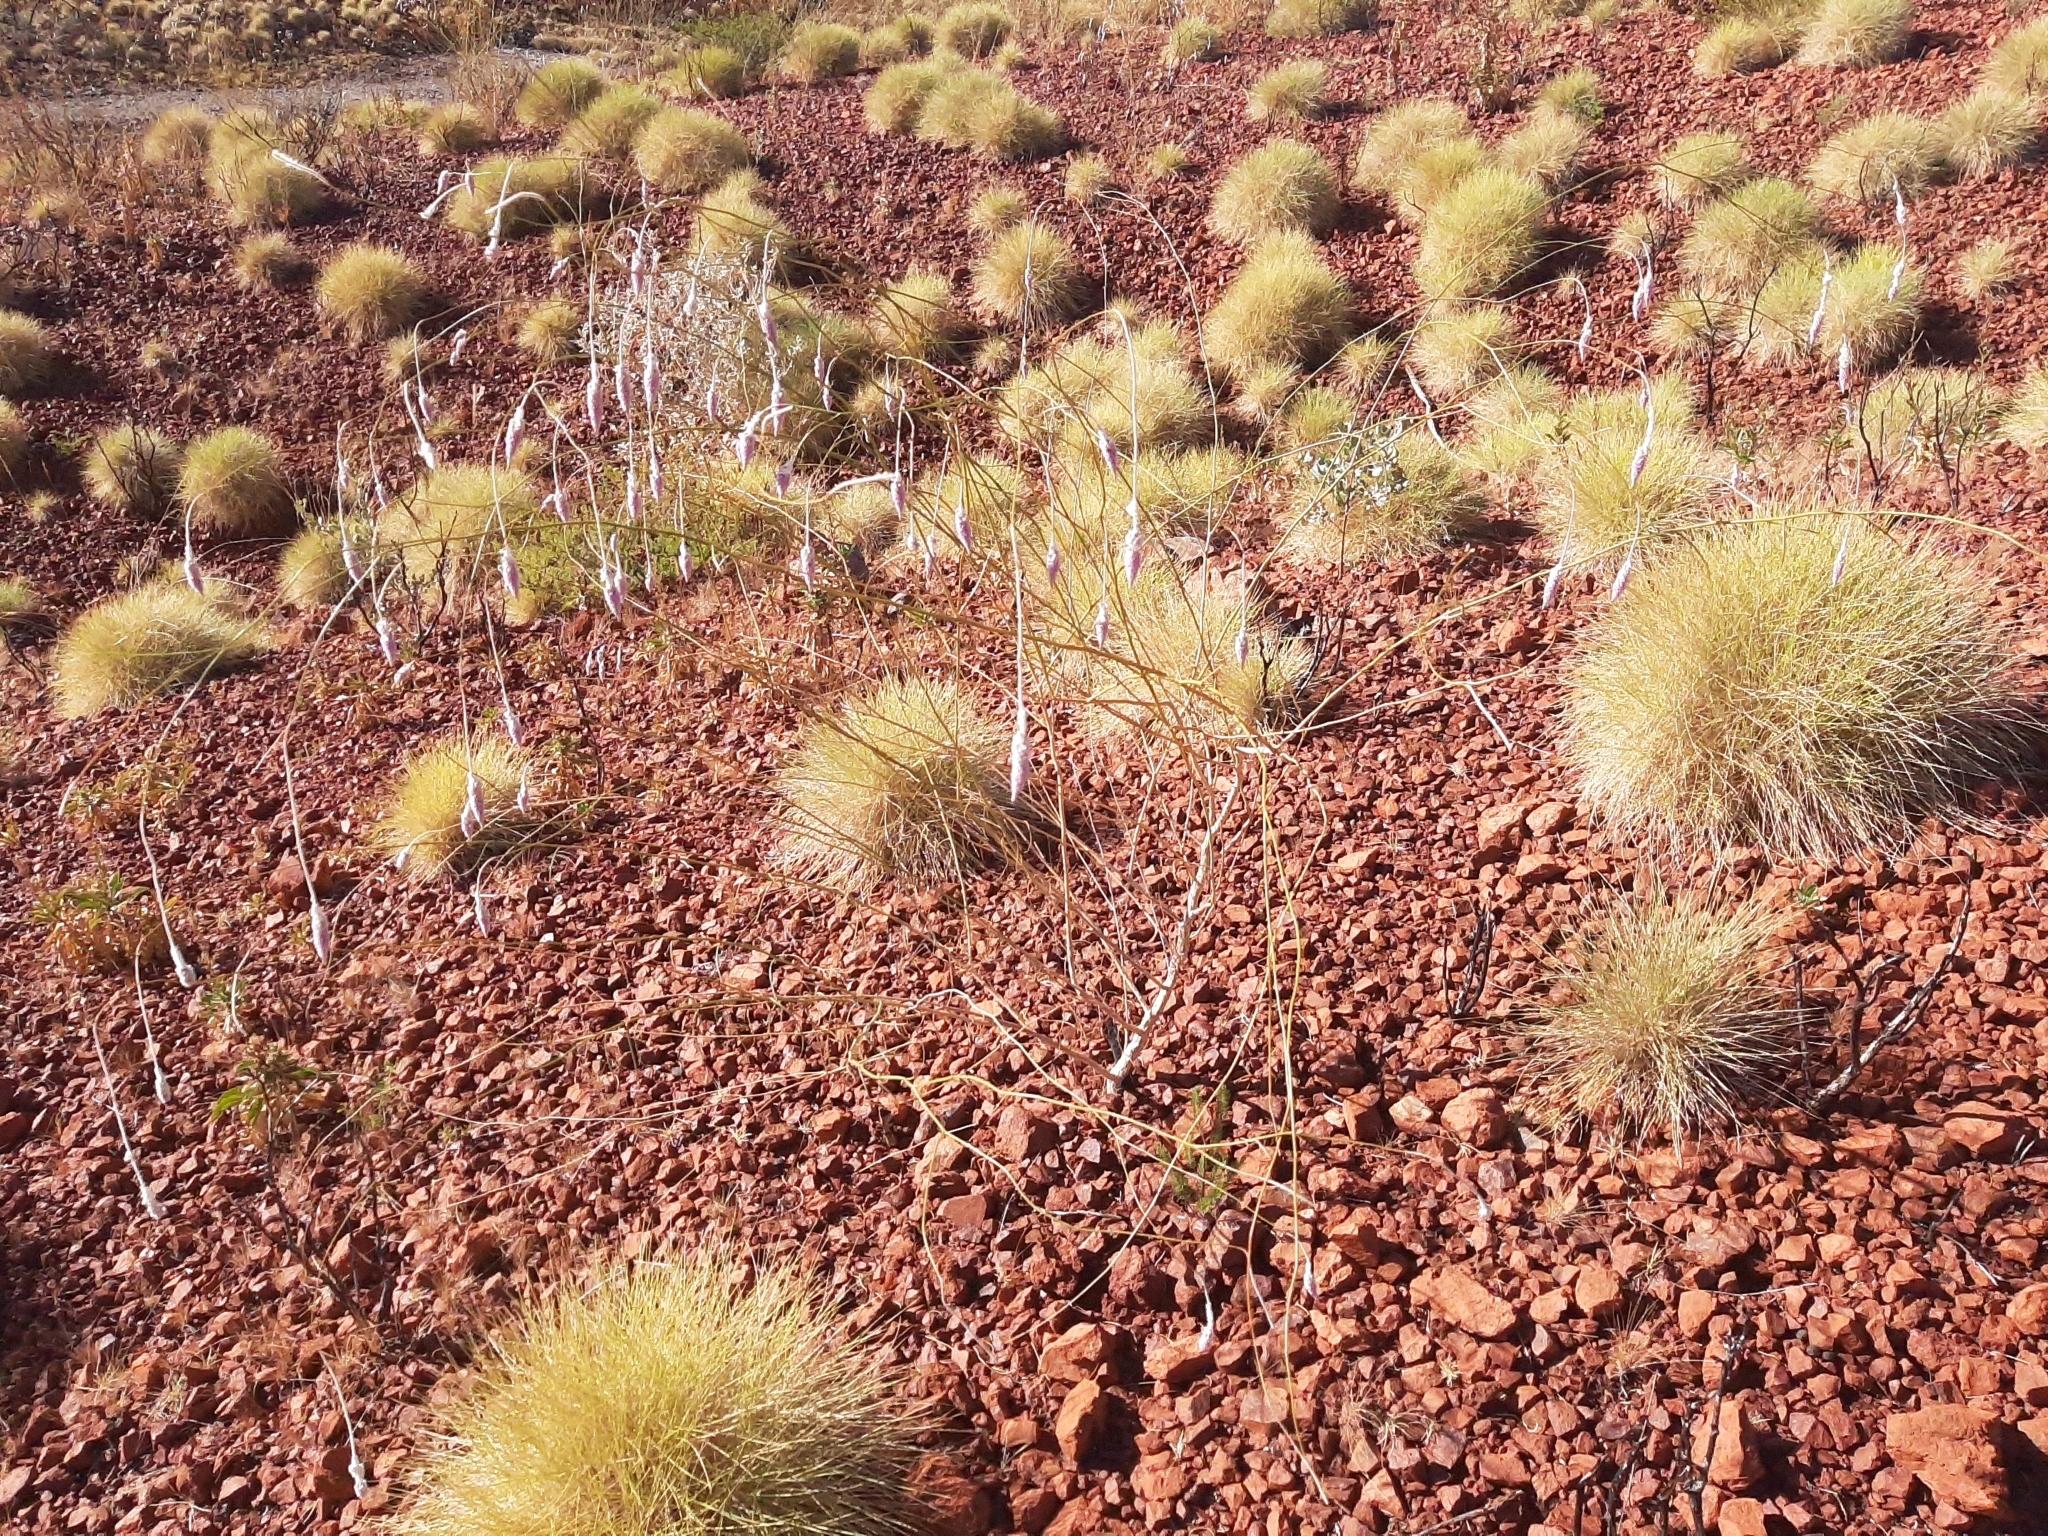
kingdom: Plantae
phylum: Tracheophyta
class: Magnoliopsida
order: Caryophyllales
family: Amaranthaceae
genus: Ptilotus
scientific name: Ptilotus calostachyus
